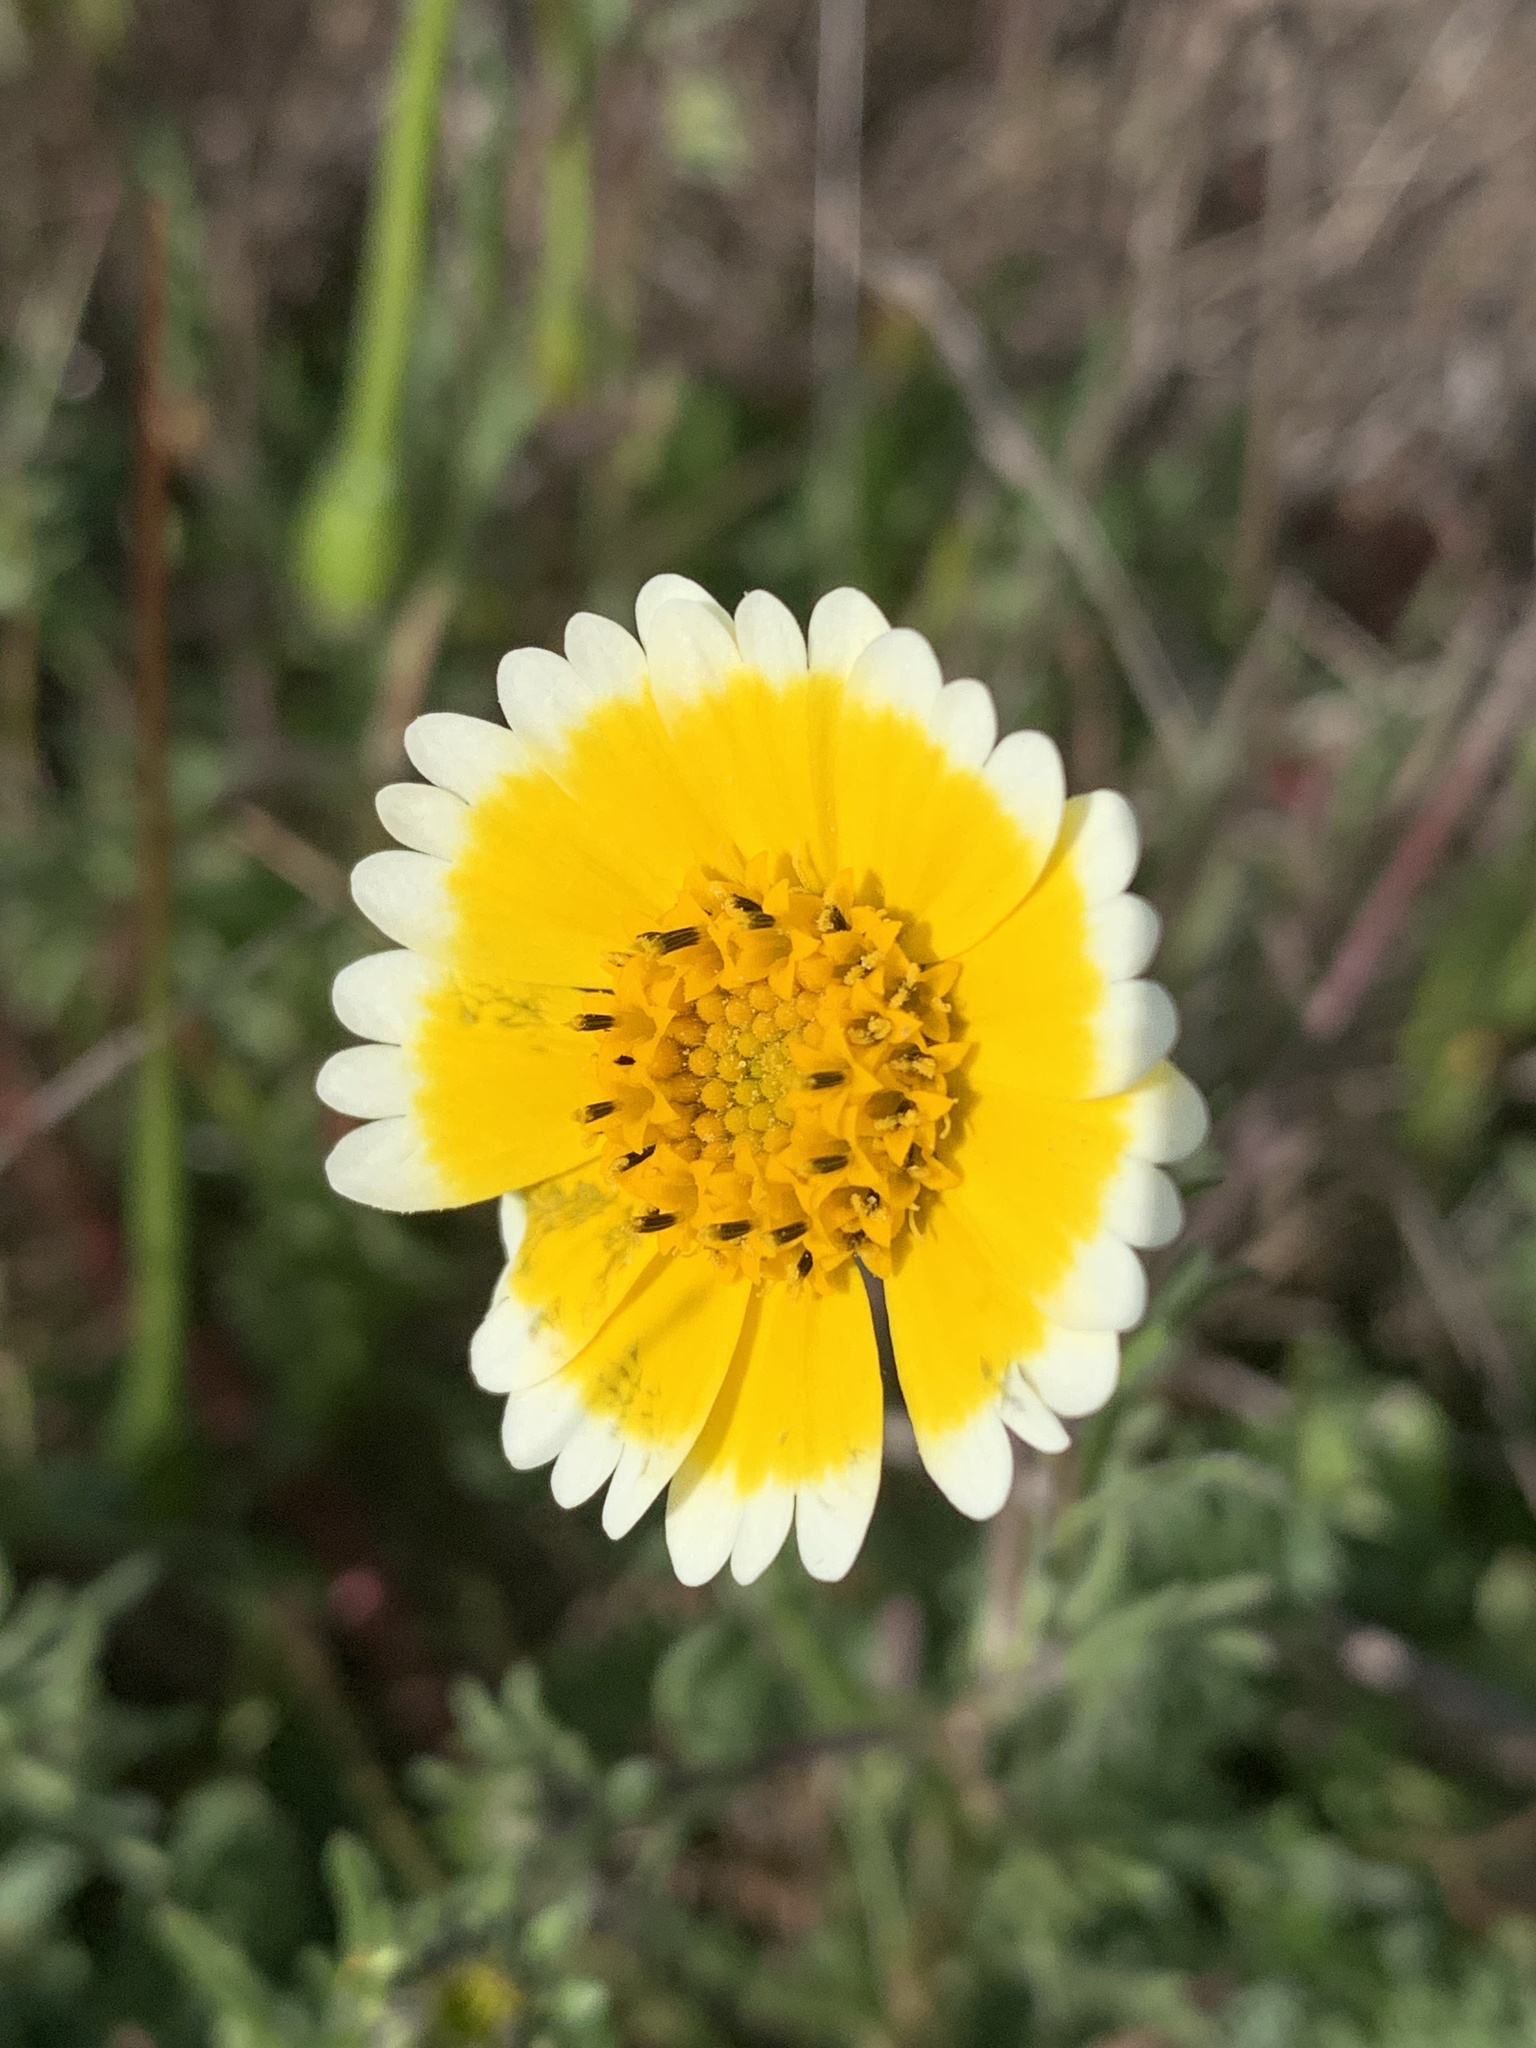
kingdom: Plantae
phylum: Tracheophyta
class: Magnoliopsida
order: Asterales
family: Asteraceae
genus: Layia
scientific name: Layia platyglossa
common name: Tidy-tips
